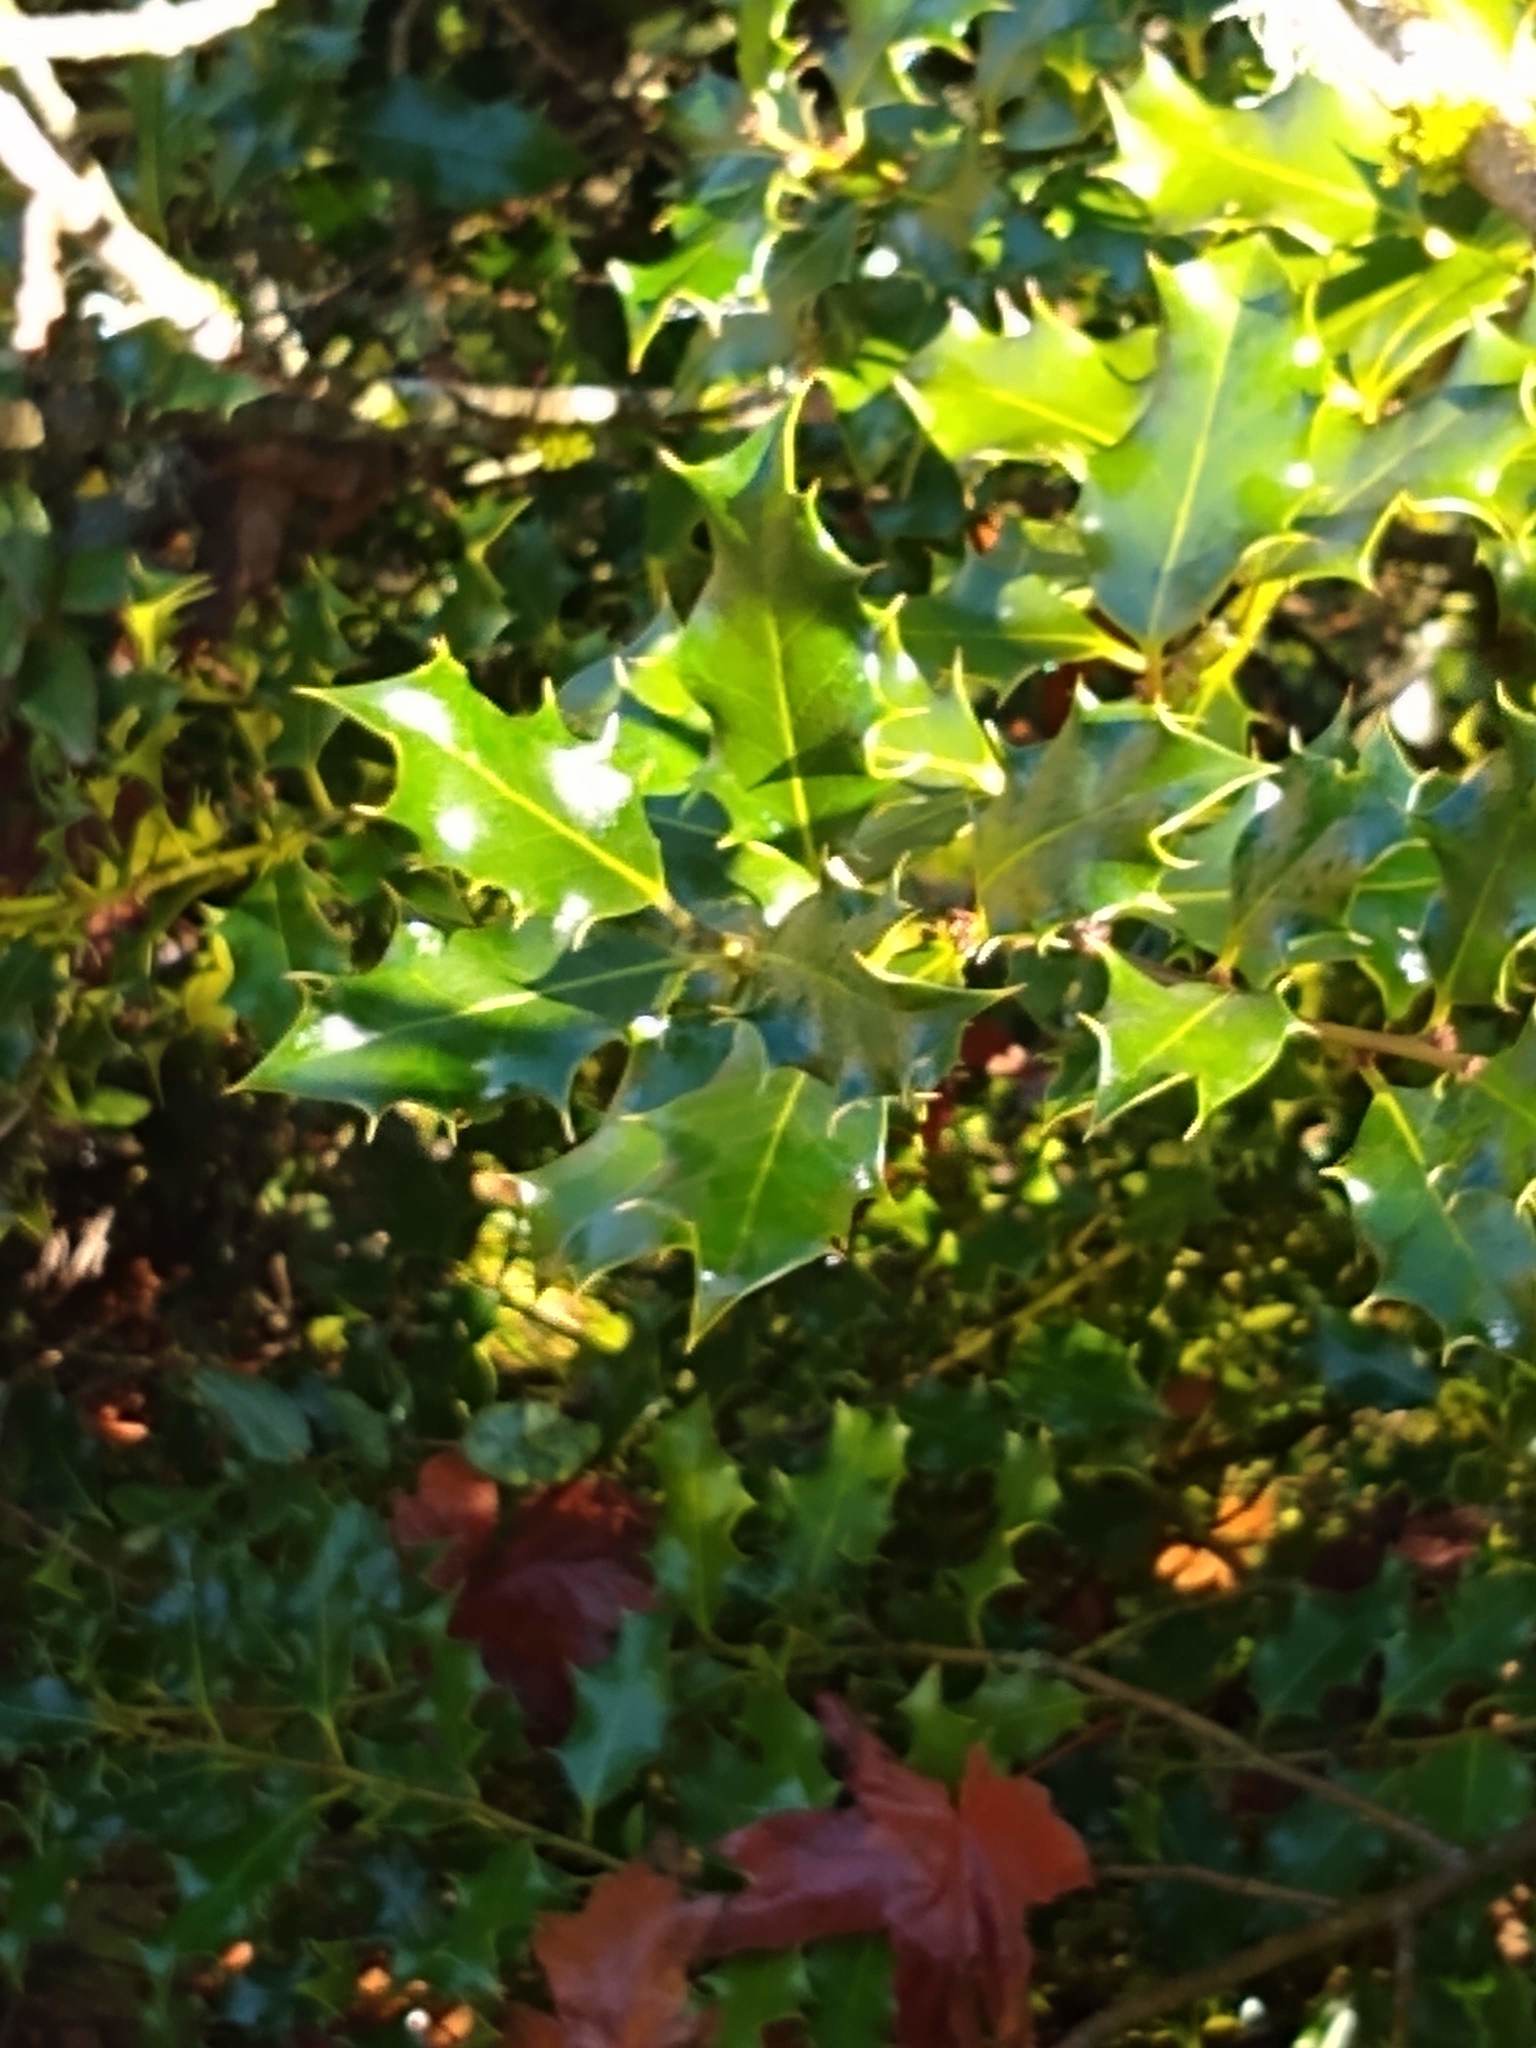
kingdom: Plantae
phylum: Tracheophyta
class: Magnoliopsida
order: Aquifoliales
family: Aquifoliaceae
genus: Ilex
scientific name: Ilex aquifolium
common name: English holly
